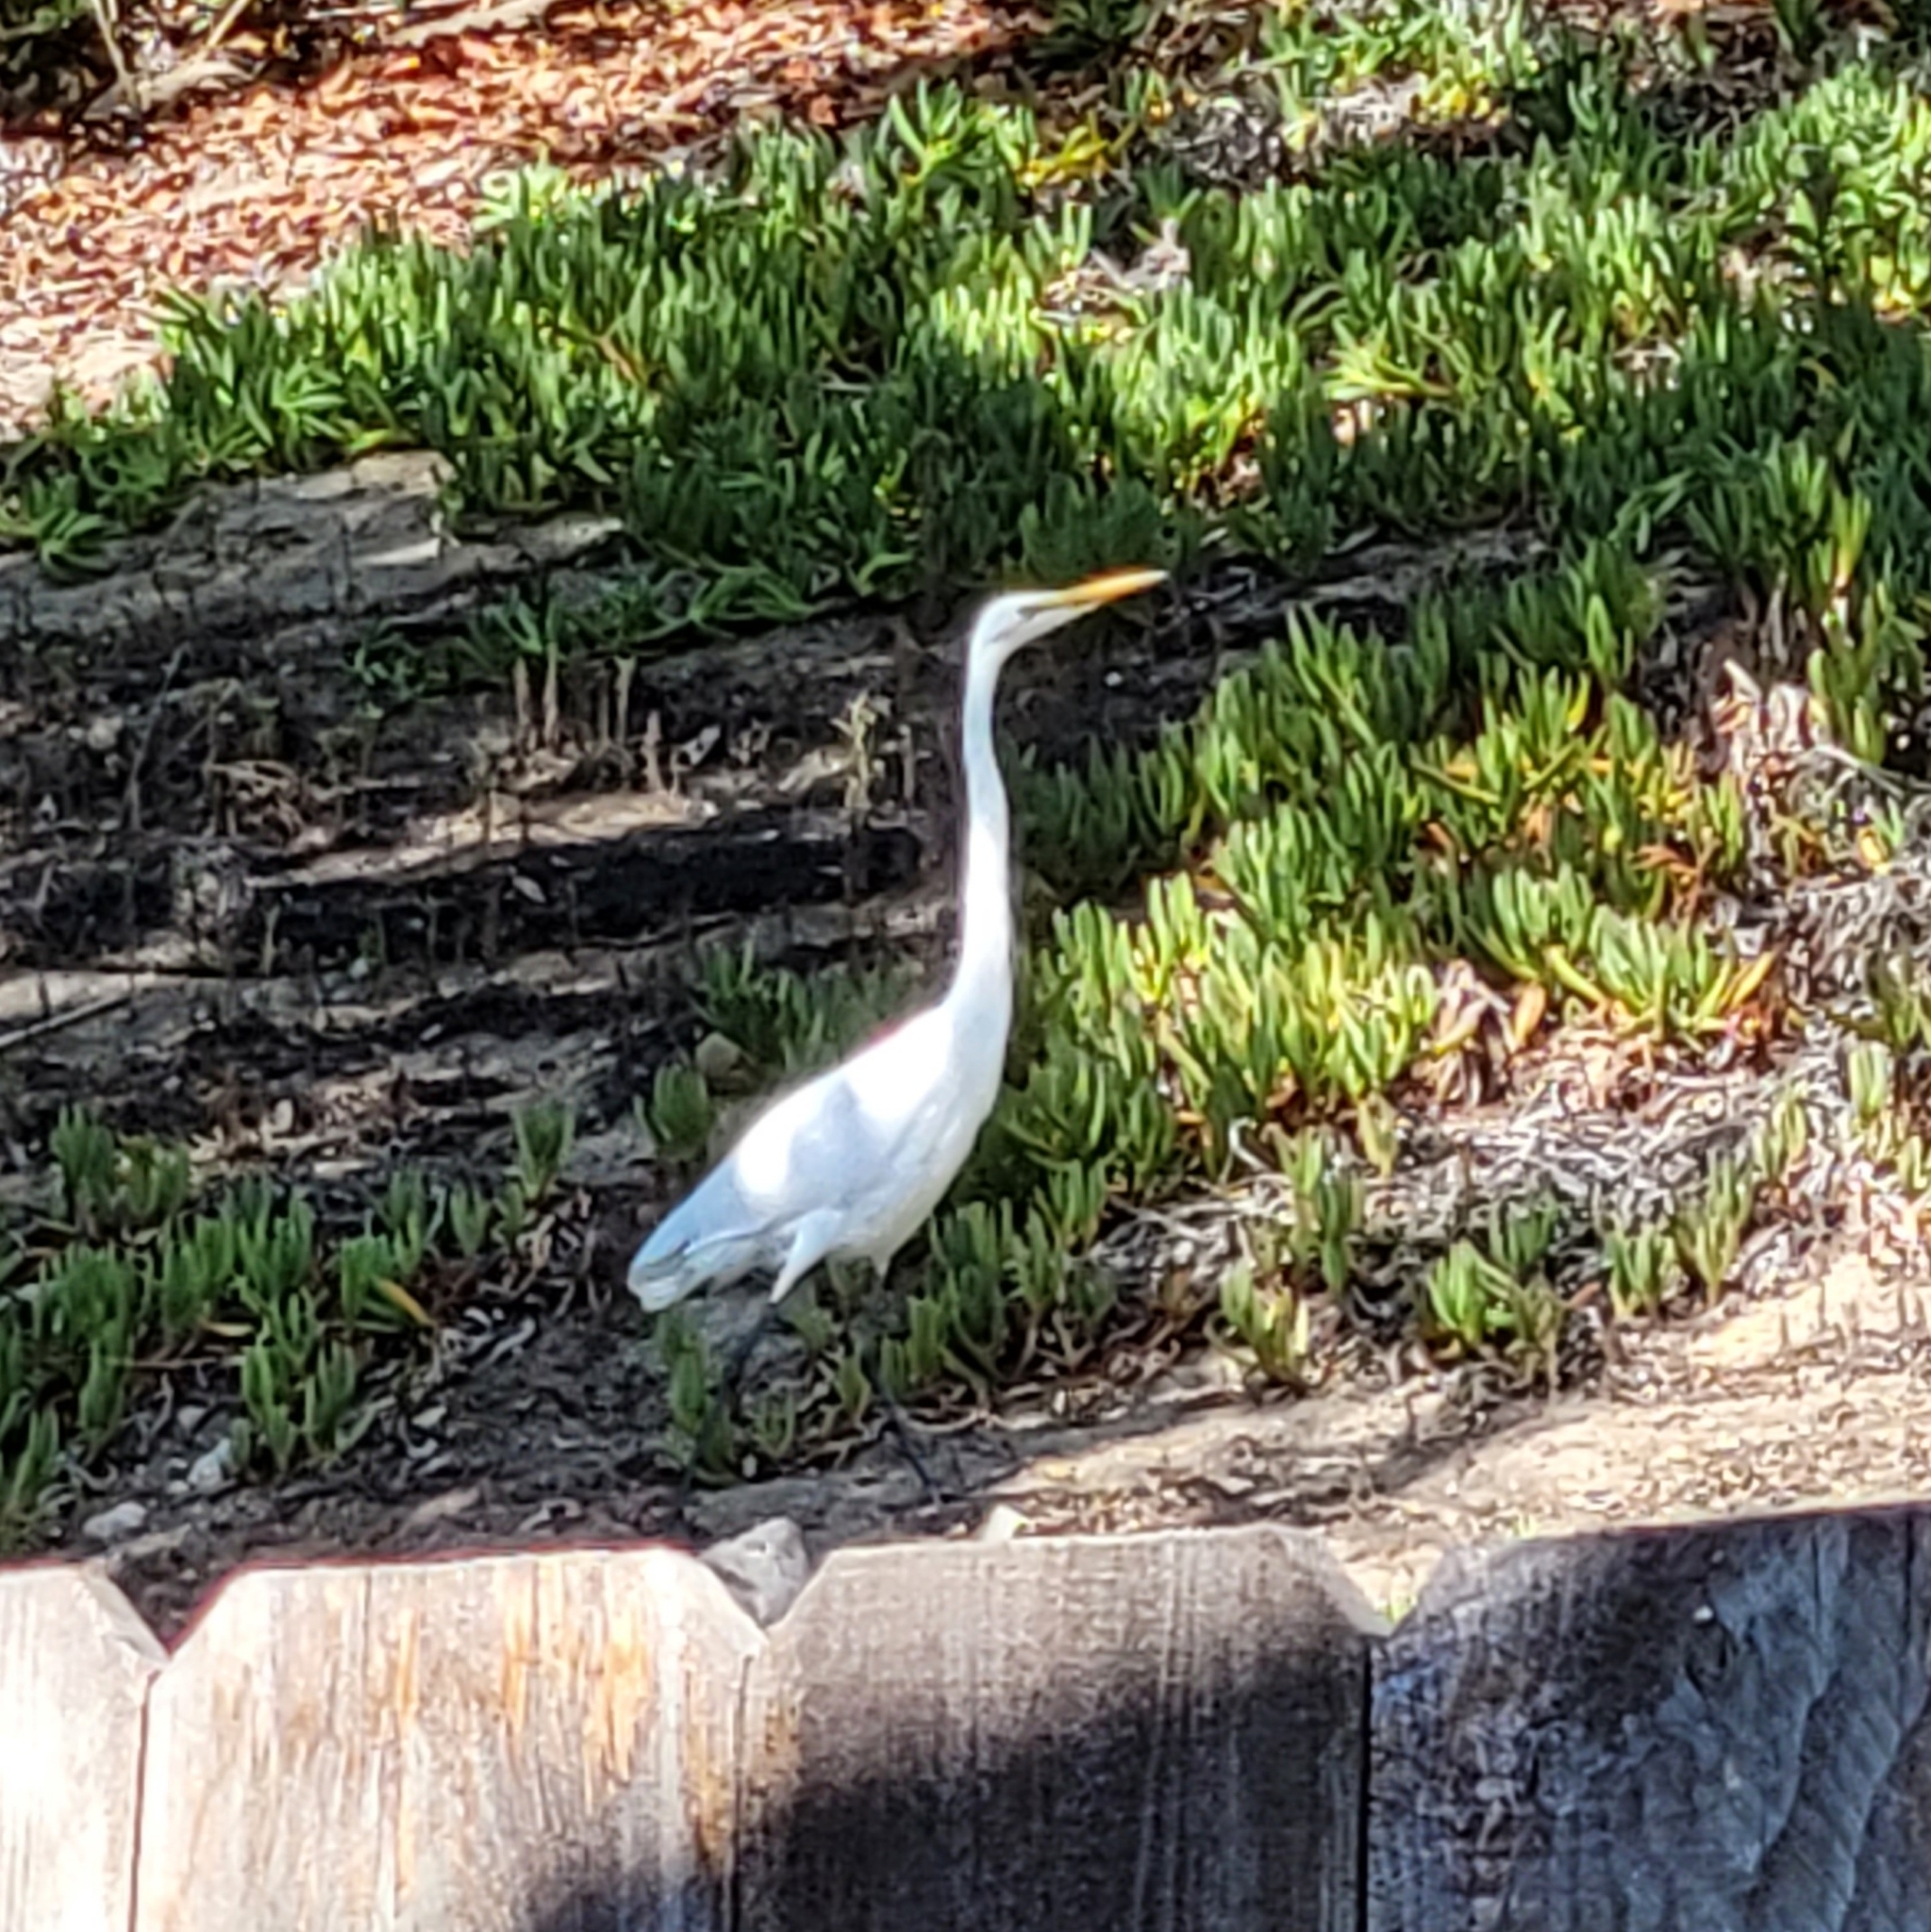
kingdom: Animalia
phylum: Chordata
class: Aves
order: Pelecaniformes
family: Ardeidae
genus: Ardea
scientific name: Ardea alba
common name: Great egret
